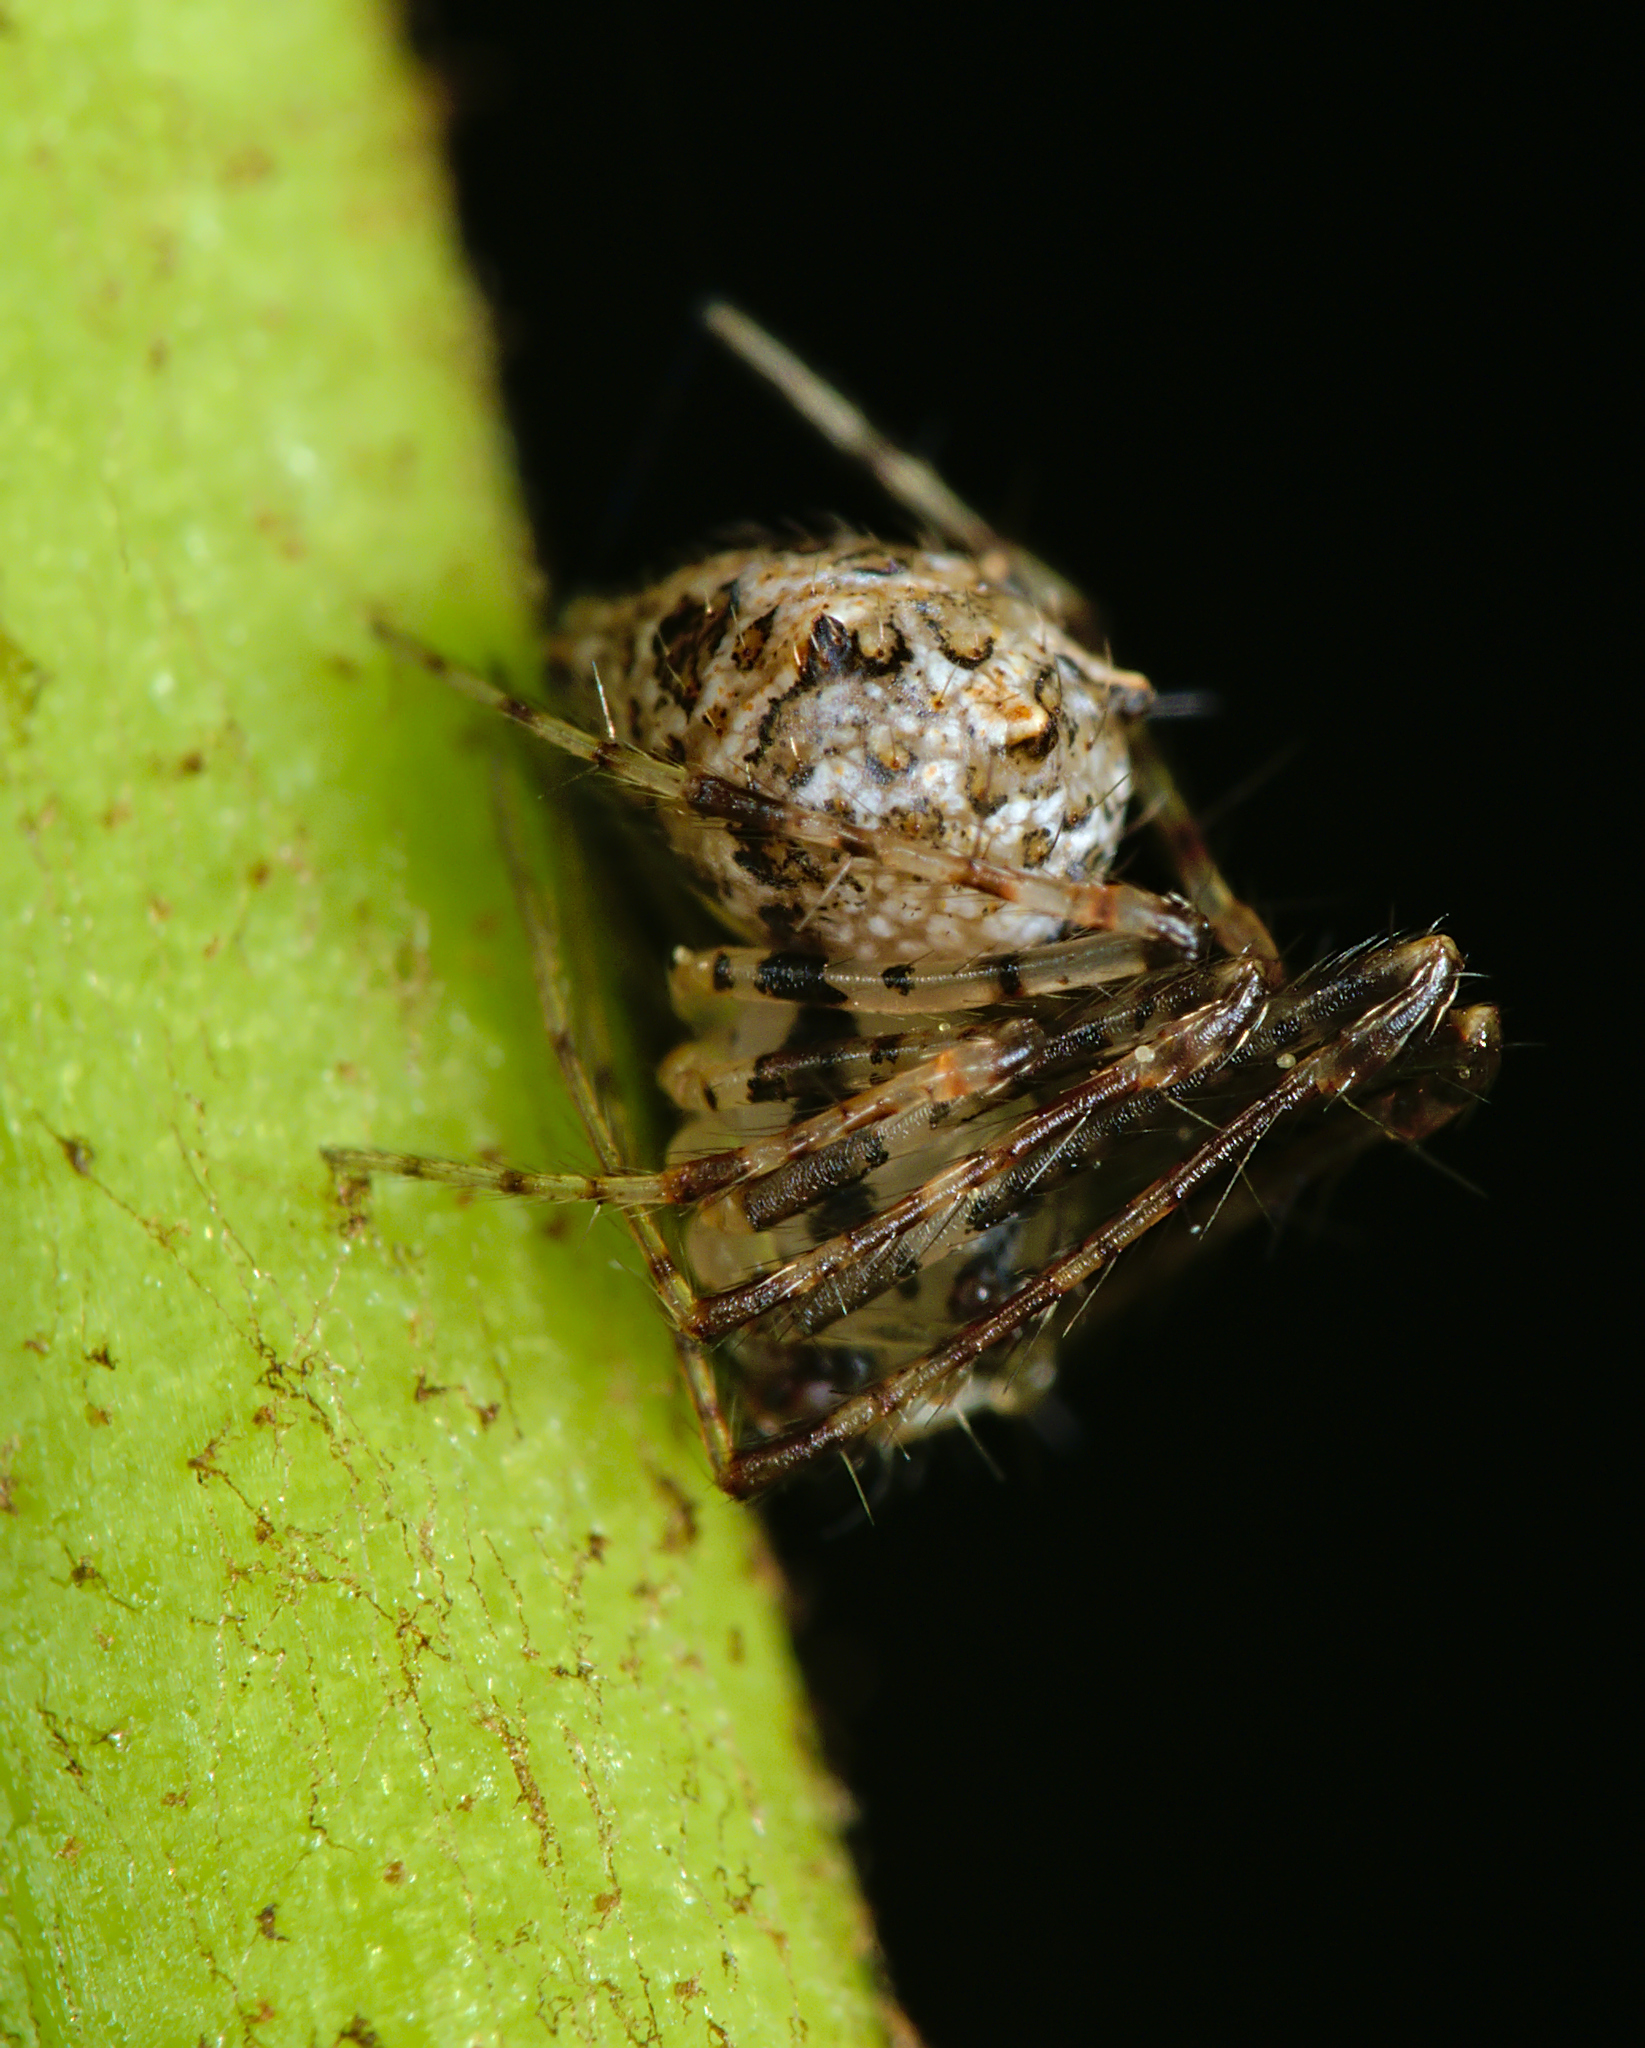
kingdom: Animalia
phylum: Arthropoda
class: Arachnida
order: Araneae
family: Mimetidae
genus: Ero
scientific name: Ero aphana
